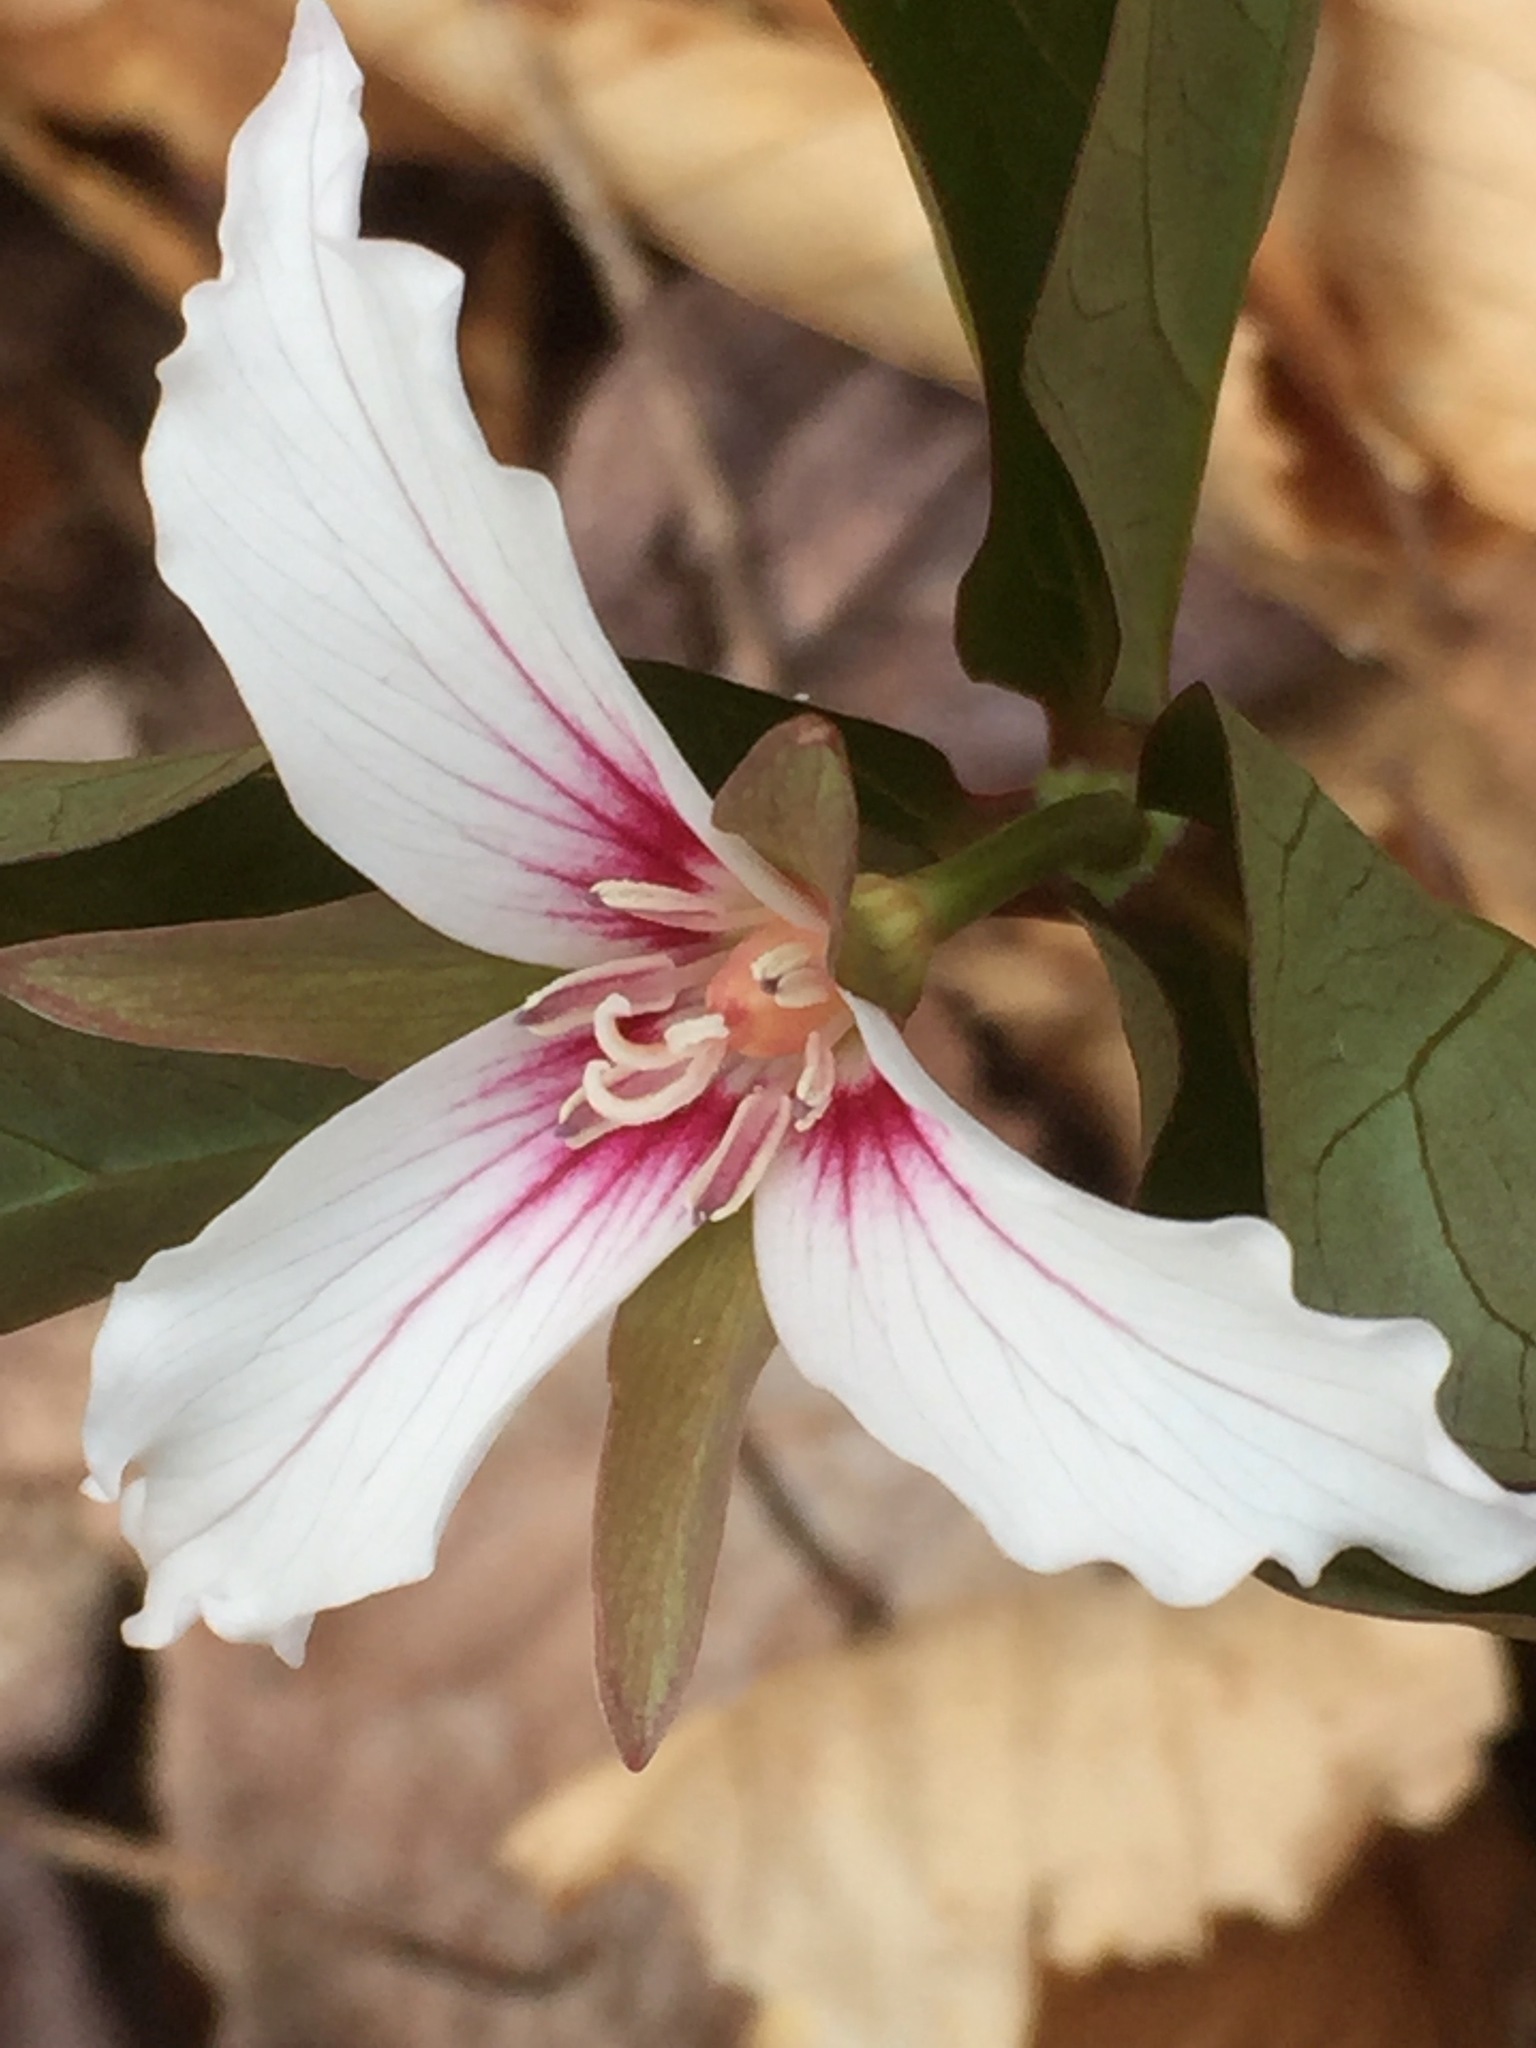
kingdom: Plantae
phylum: Tracheophyta
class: Liliopsida
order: Liliales
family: Melanthiaceae
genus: Trillium
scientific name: Trillium undulatum
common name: Paint trillium
